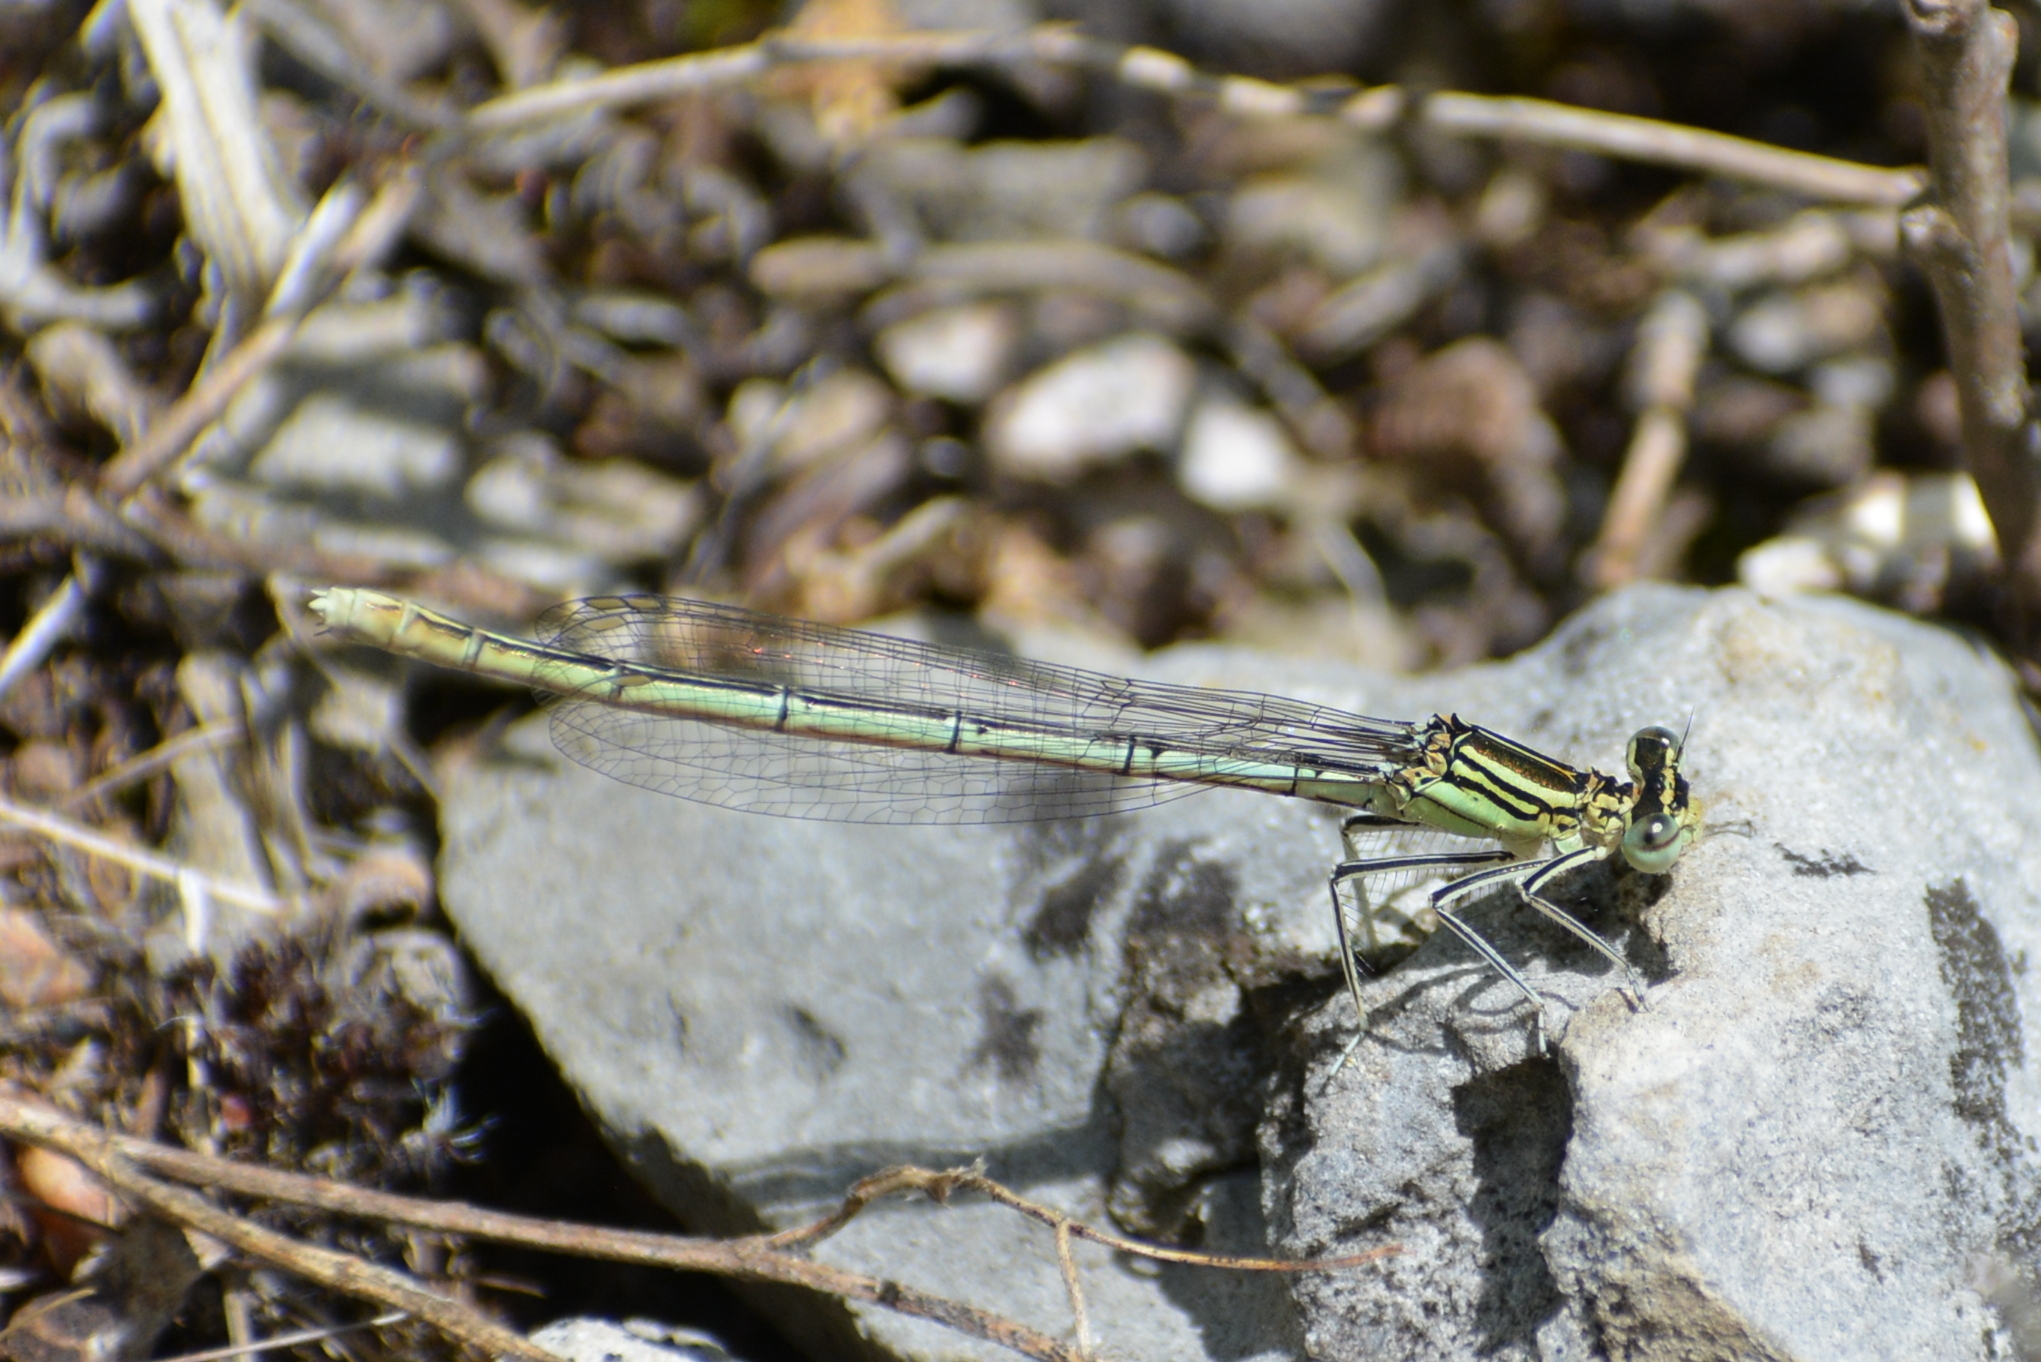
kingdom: Animalia
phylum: Arthropoda
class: Insecta
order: Odonata
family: Platycnemididae
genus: Platycnemis
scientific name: Platycnemis pennipes
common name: White-legged damselfly
